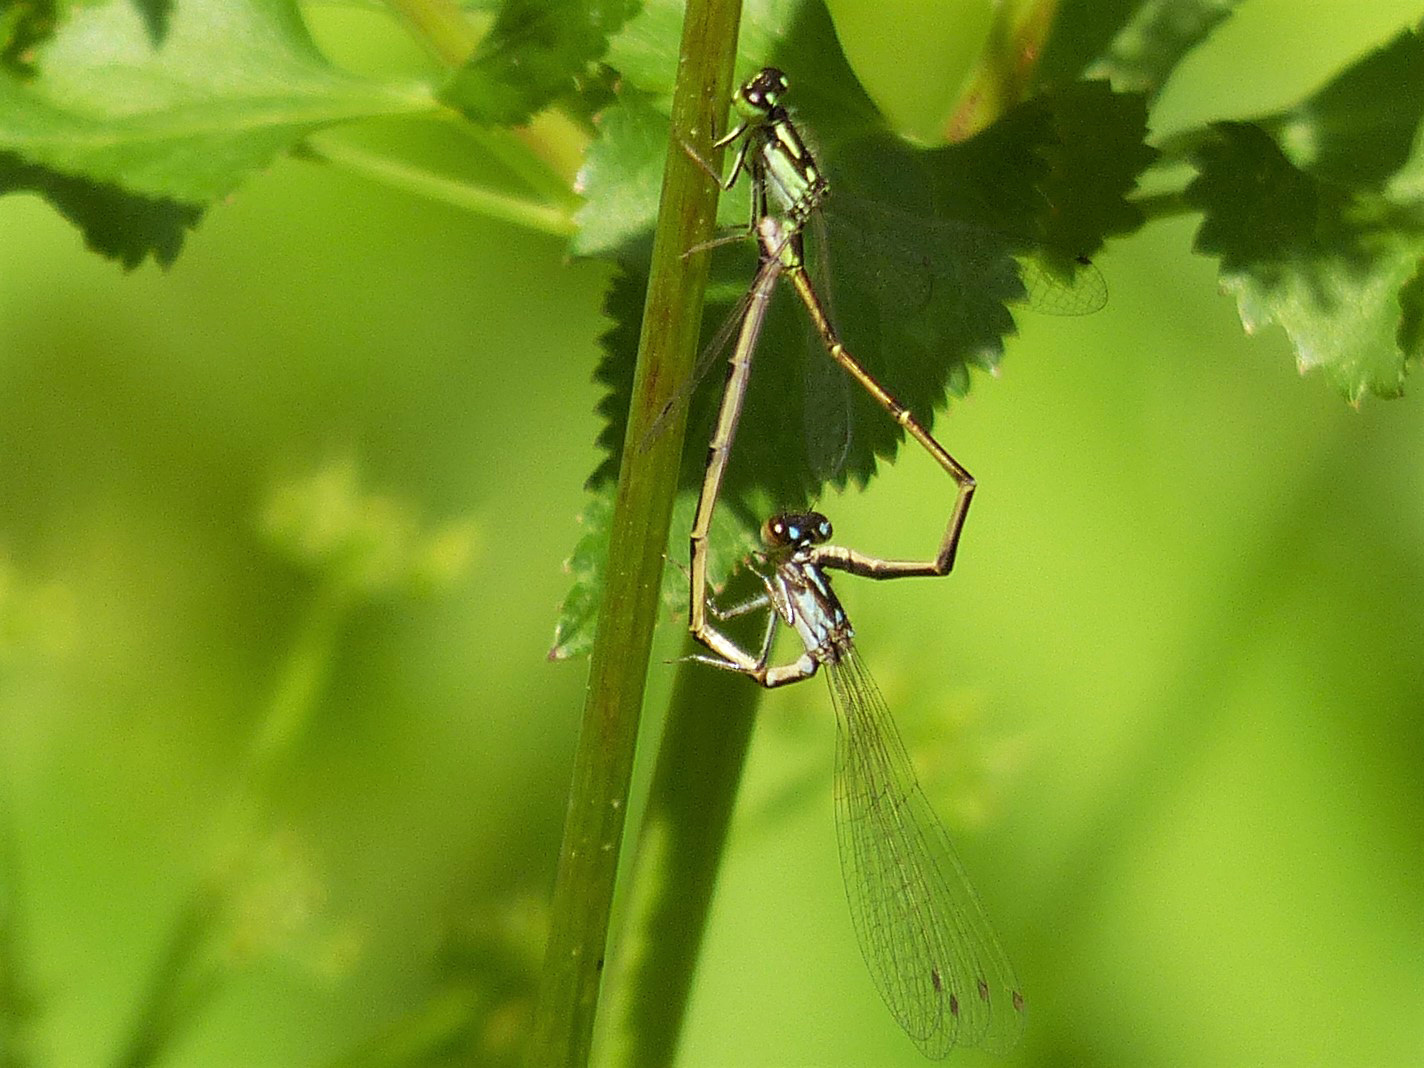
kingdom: Animalia
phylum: Arthropoda
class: Insecta
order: Odonata
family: Coenagrionidae
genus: Ischnura
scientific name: Ischnura posita
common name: Fragile forktail
